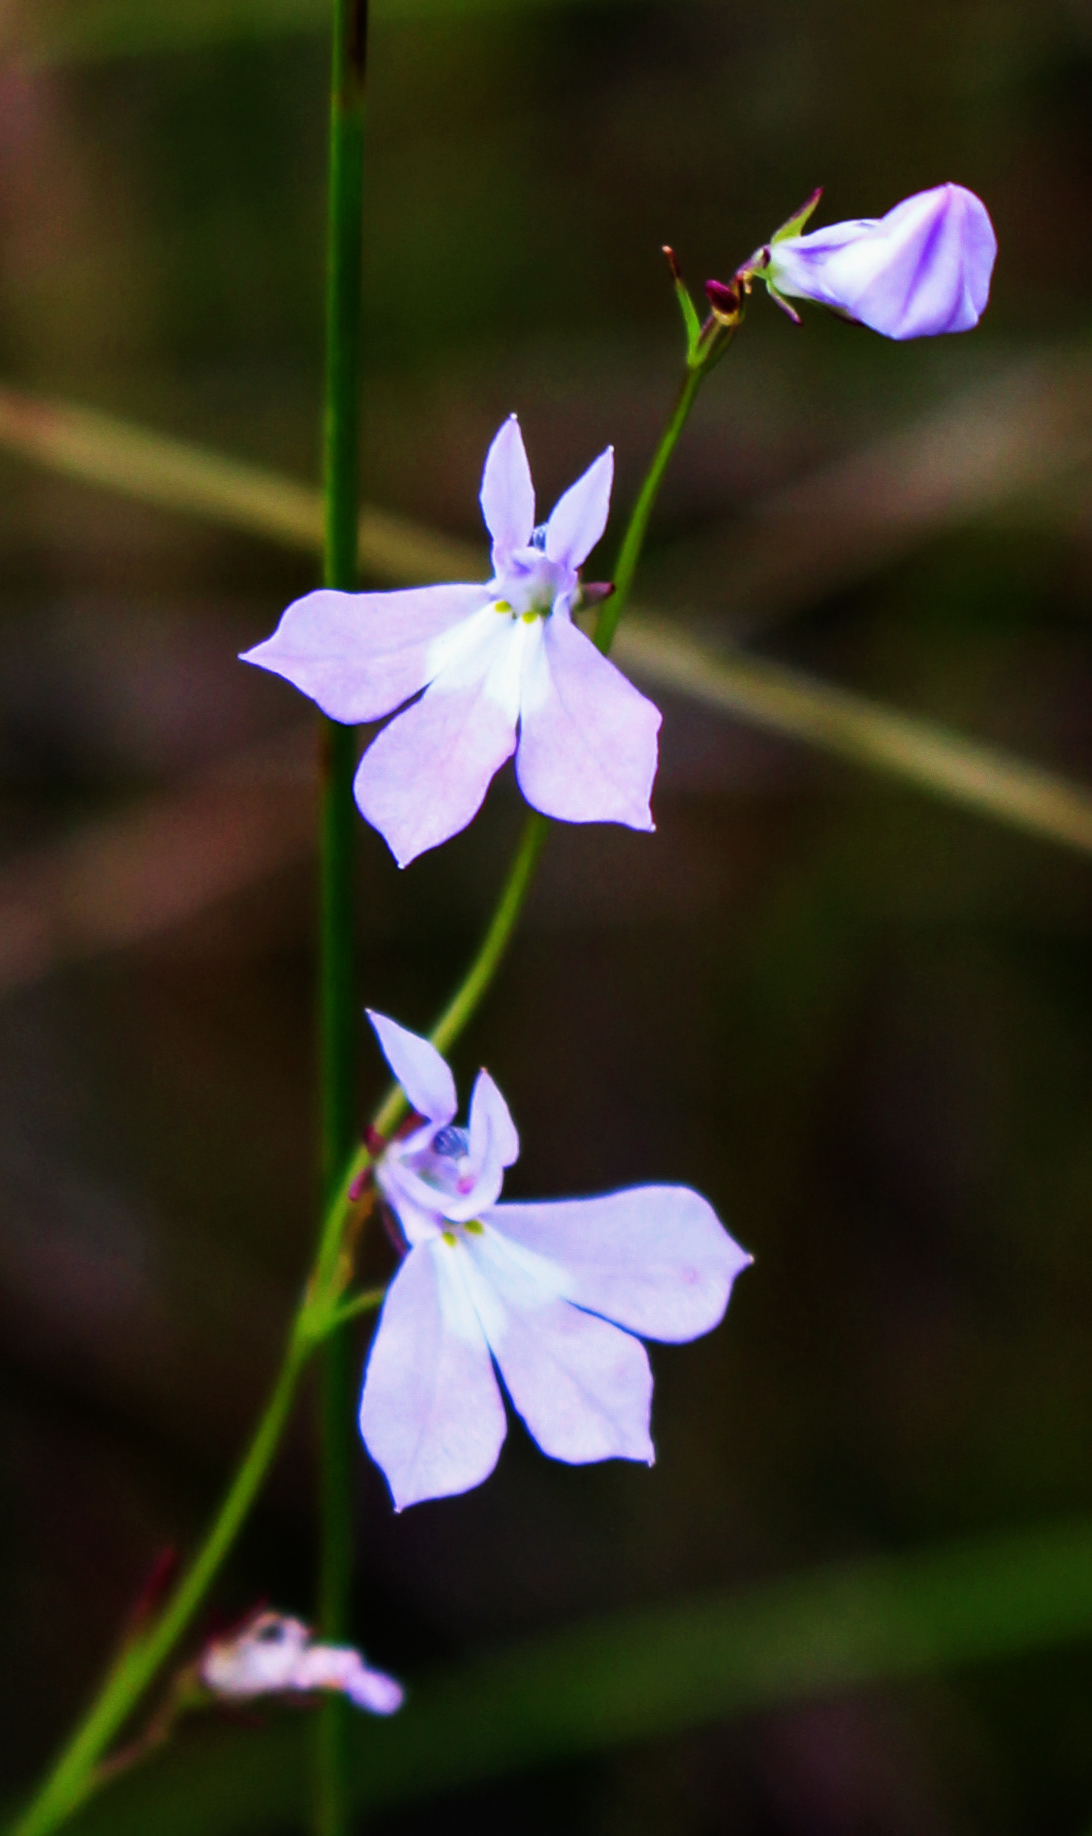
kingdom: Plantae
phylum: Tracheophyta
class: Magnoliopsida
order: Asterales
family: Campanulaceae
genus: Lobelia
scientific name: Lobelia kalmii
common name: Kalm's lobelia
